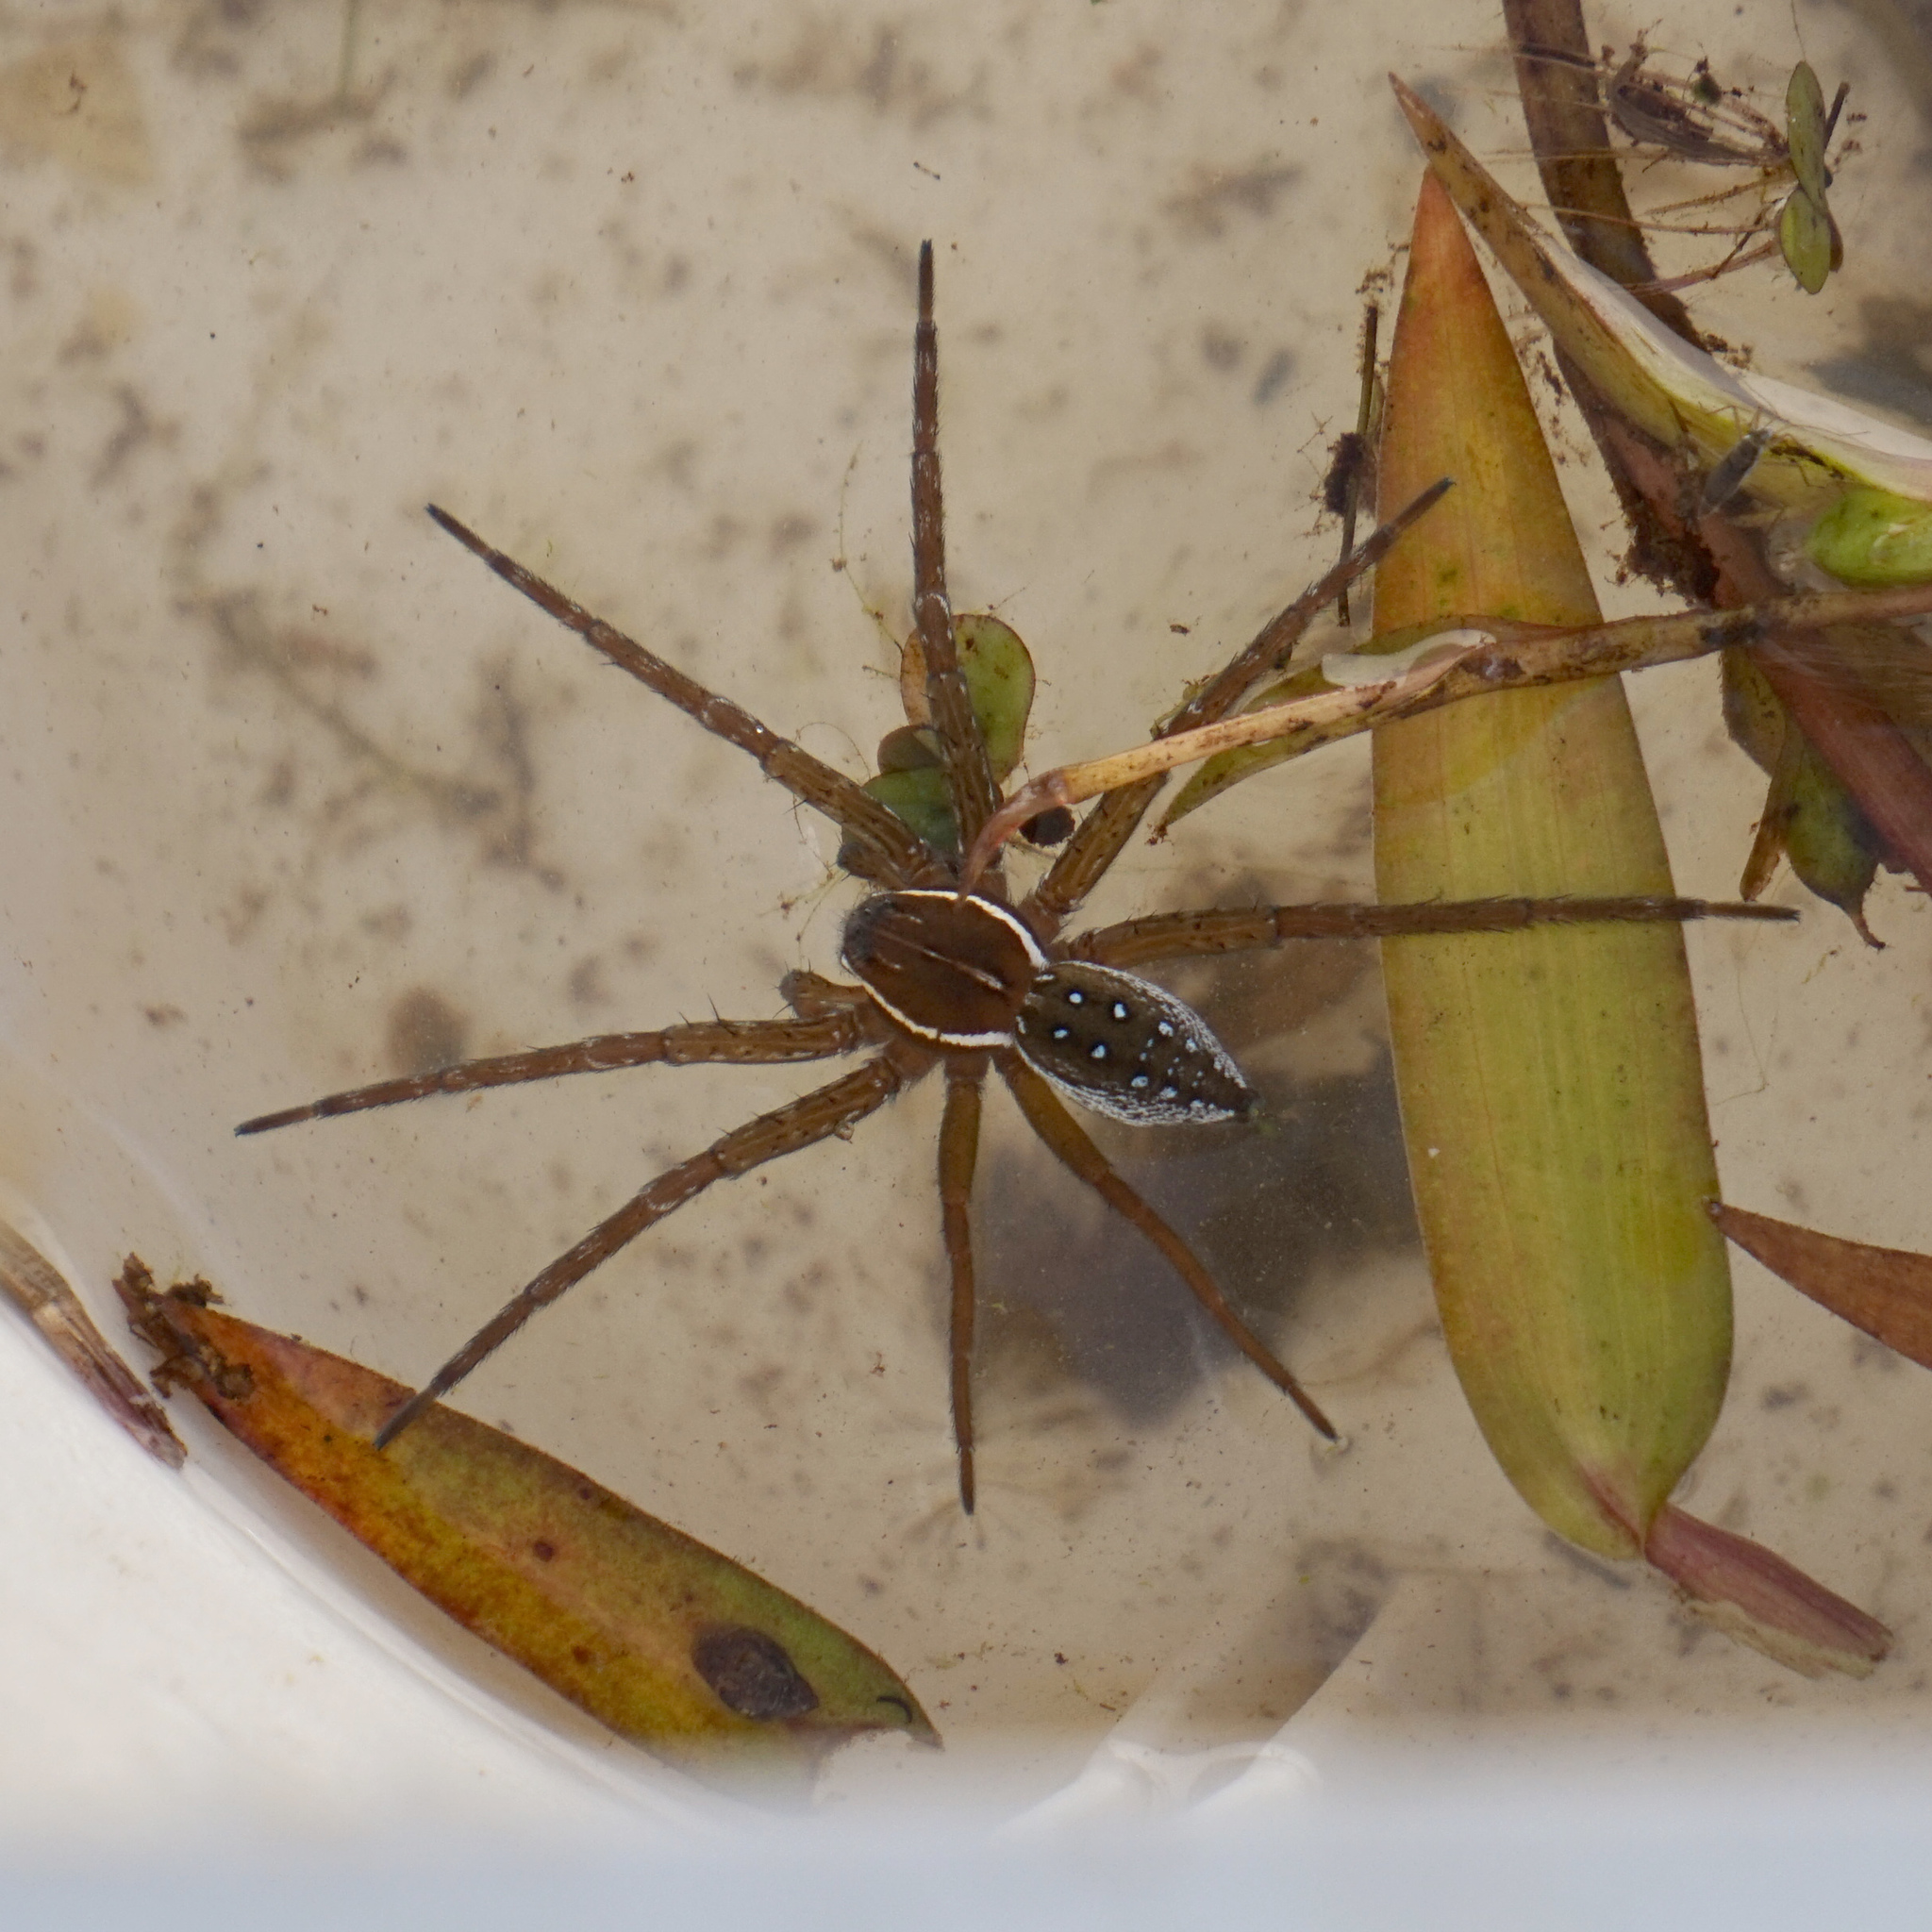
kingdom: Animalia
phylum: Arthropoda
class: Arachnida
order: Araneae
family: Pisauridae
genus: Dolomedes
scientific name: Dolomedes triton
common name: Six-spotted fishing spider
